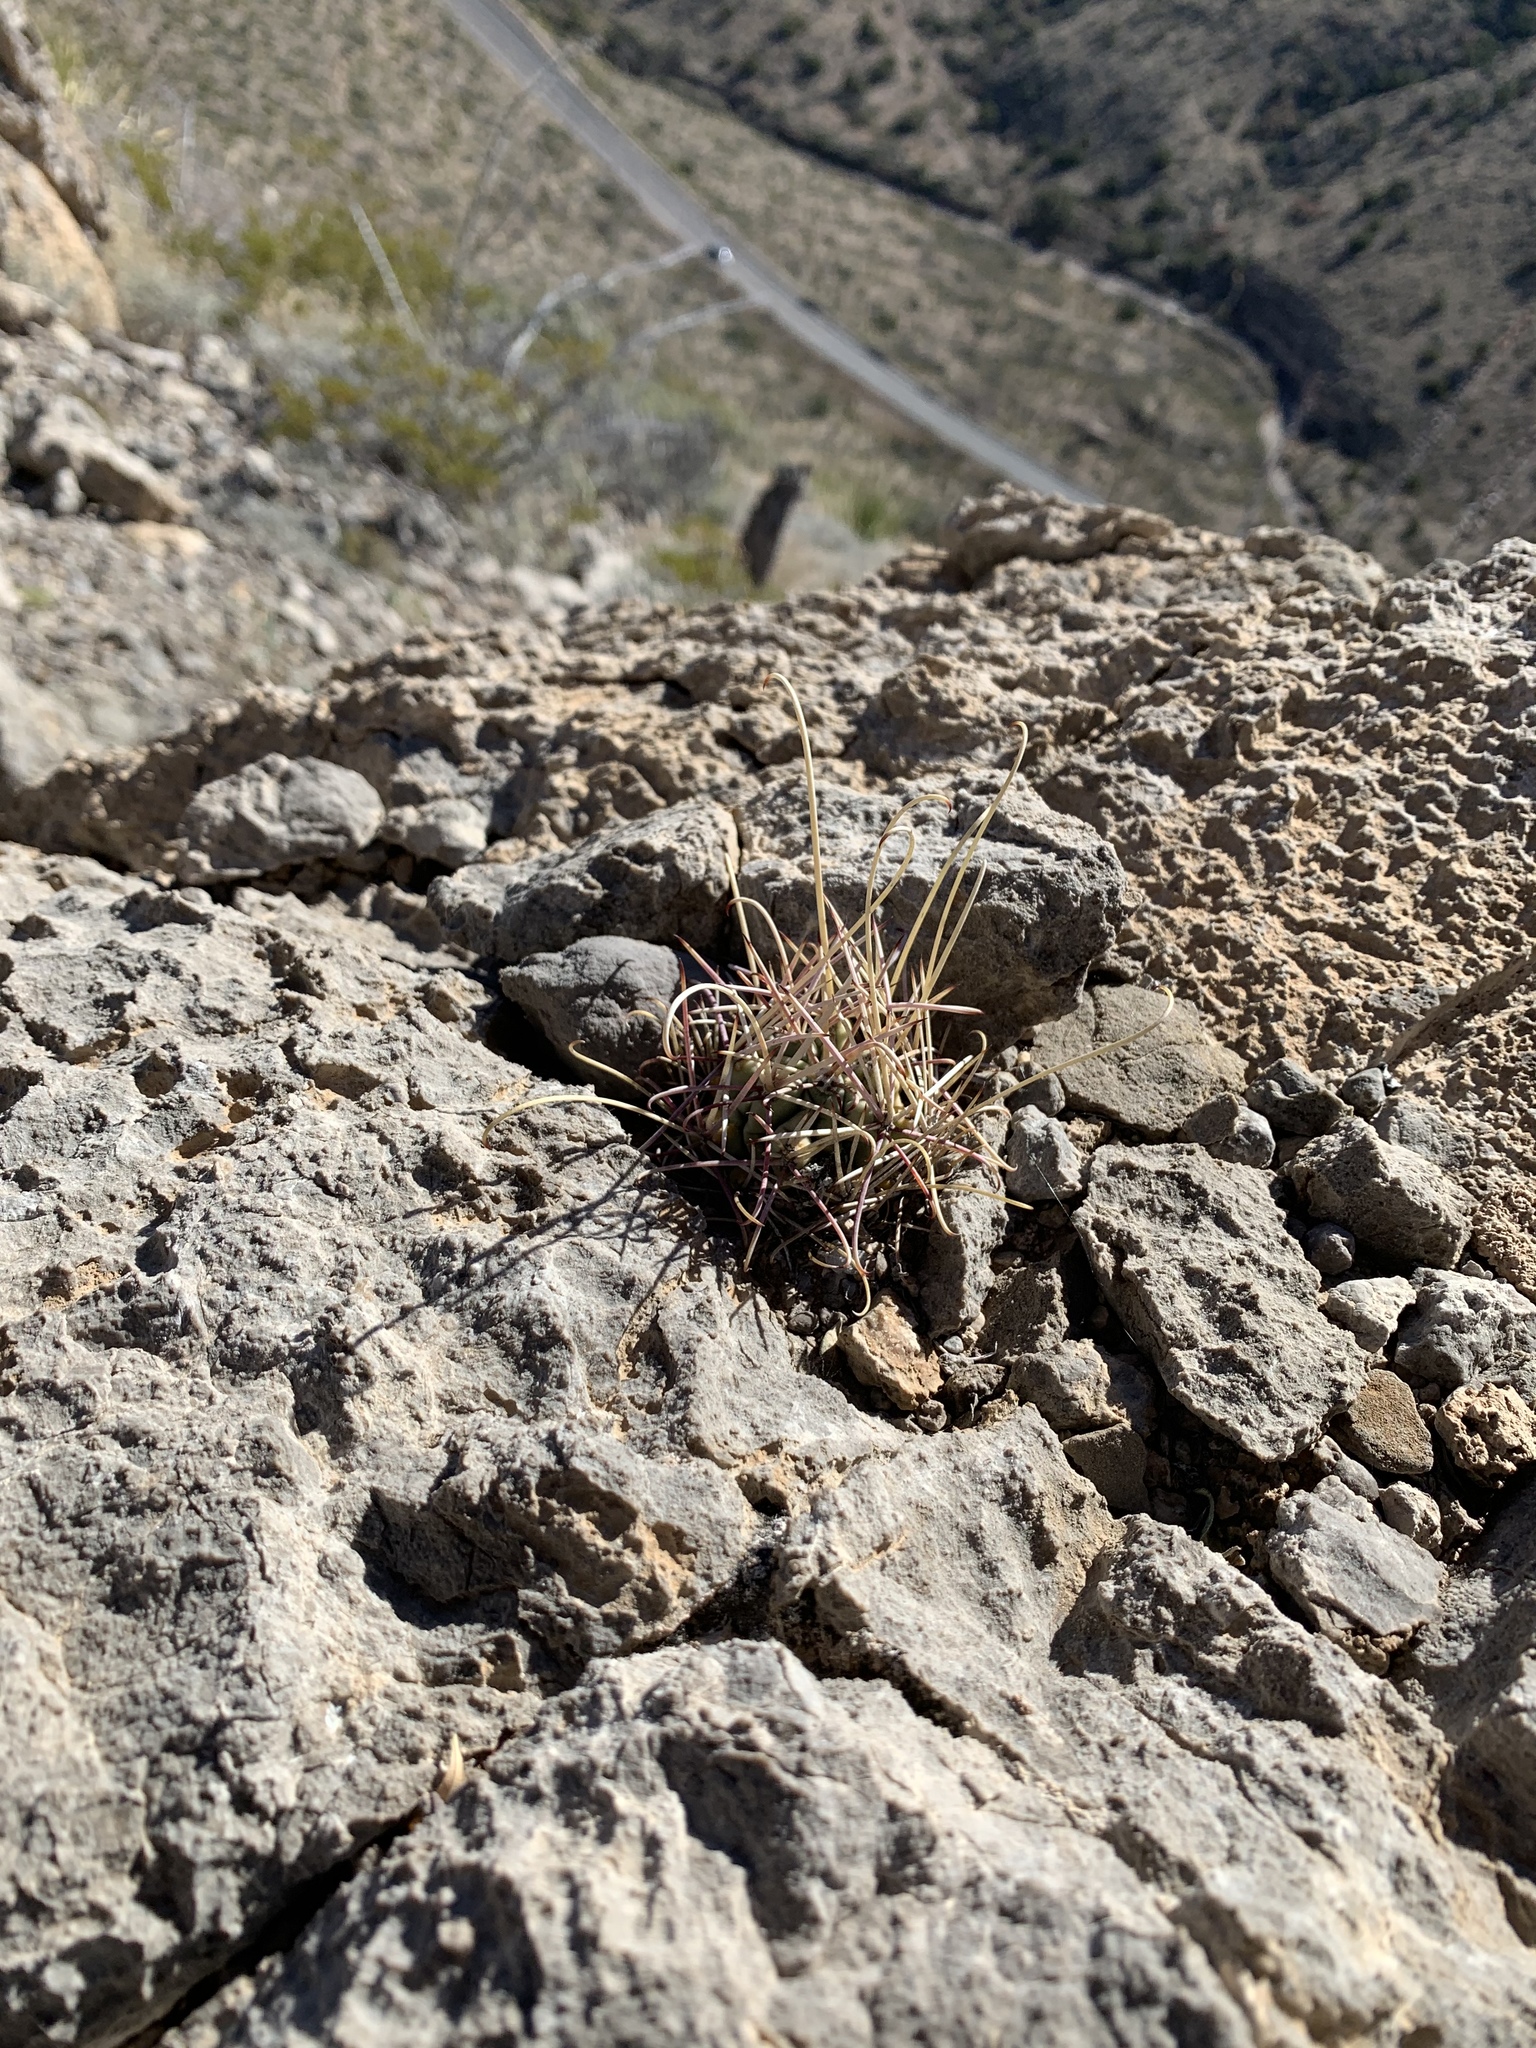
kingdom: Plantae
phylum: Tracheophyta
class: Magnoliopsida
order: Caryophyllales
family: Cactaceae
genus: Ferocactus
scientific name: Ferocactus uncinatus
